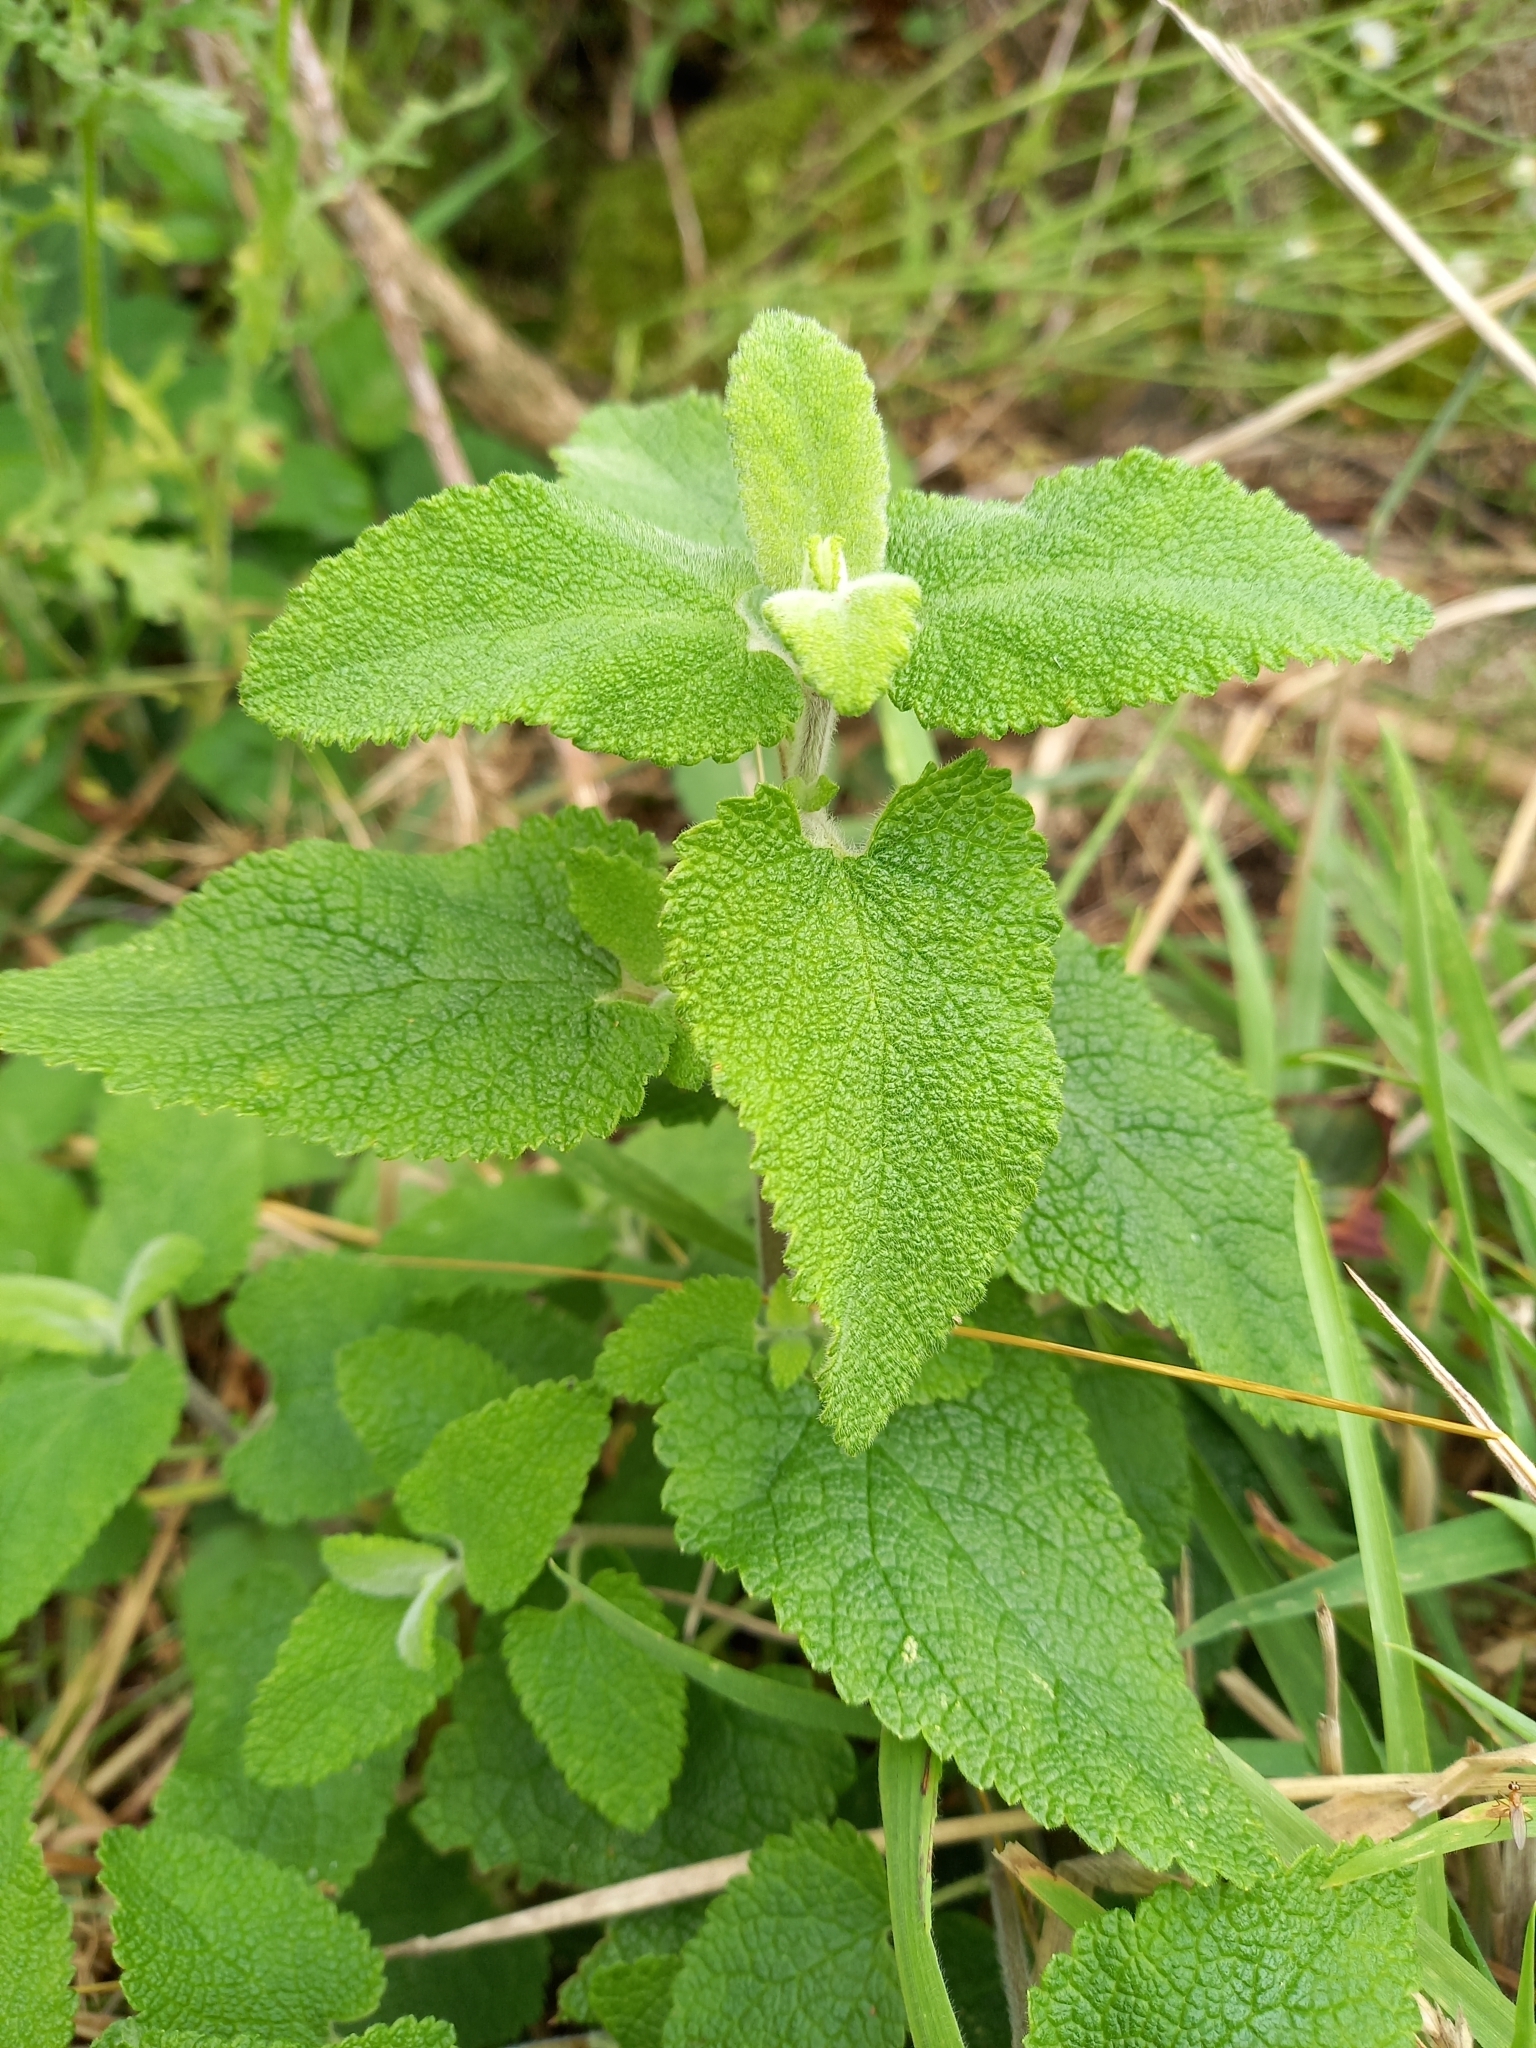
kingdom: Plantae
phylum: Tracheophyta
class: Magnoliopsida
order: Lamiales
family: Lamiaceae
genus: Teucrium
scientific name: Teucrium scorodonia
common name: Woodland germander
